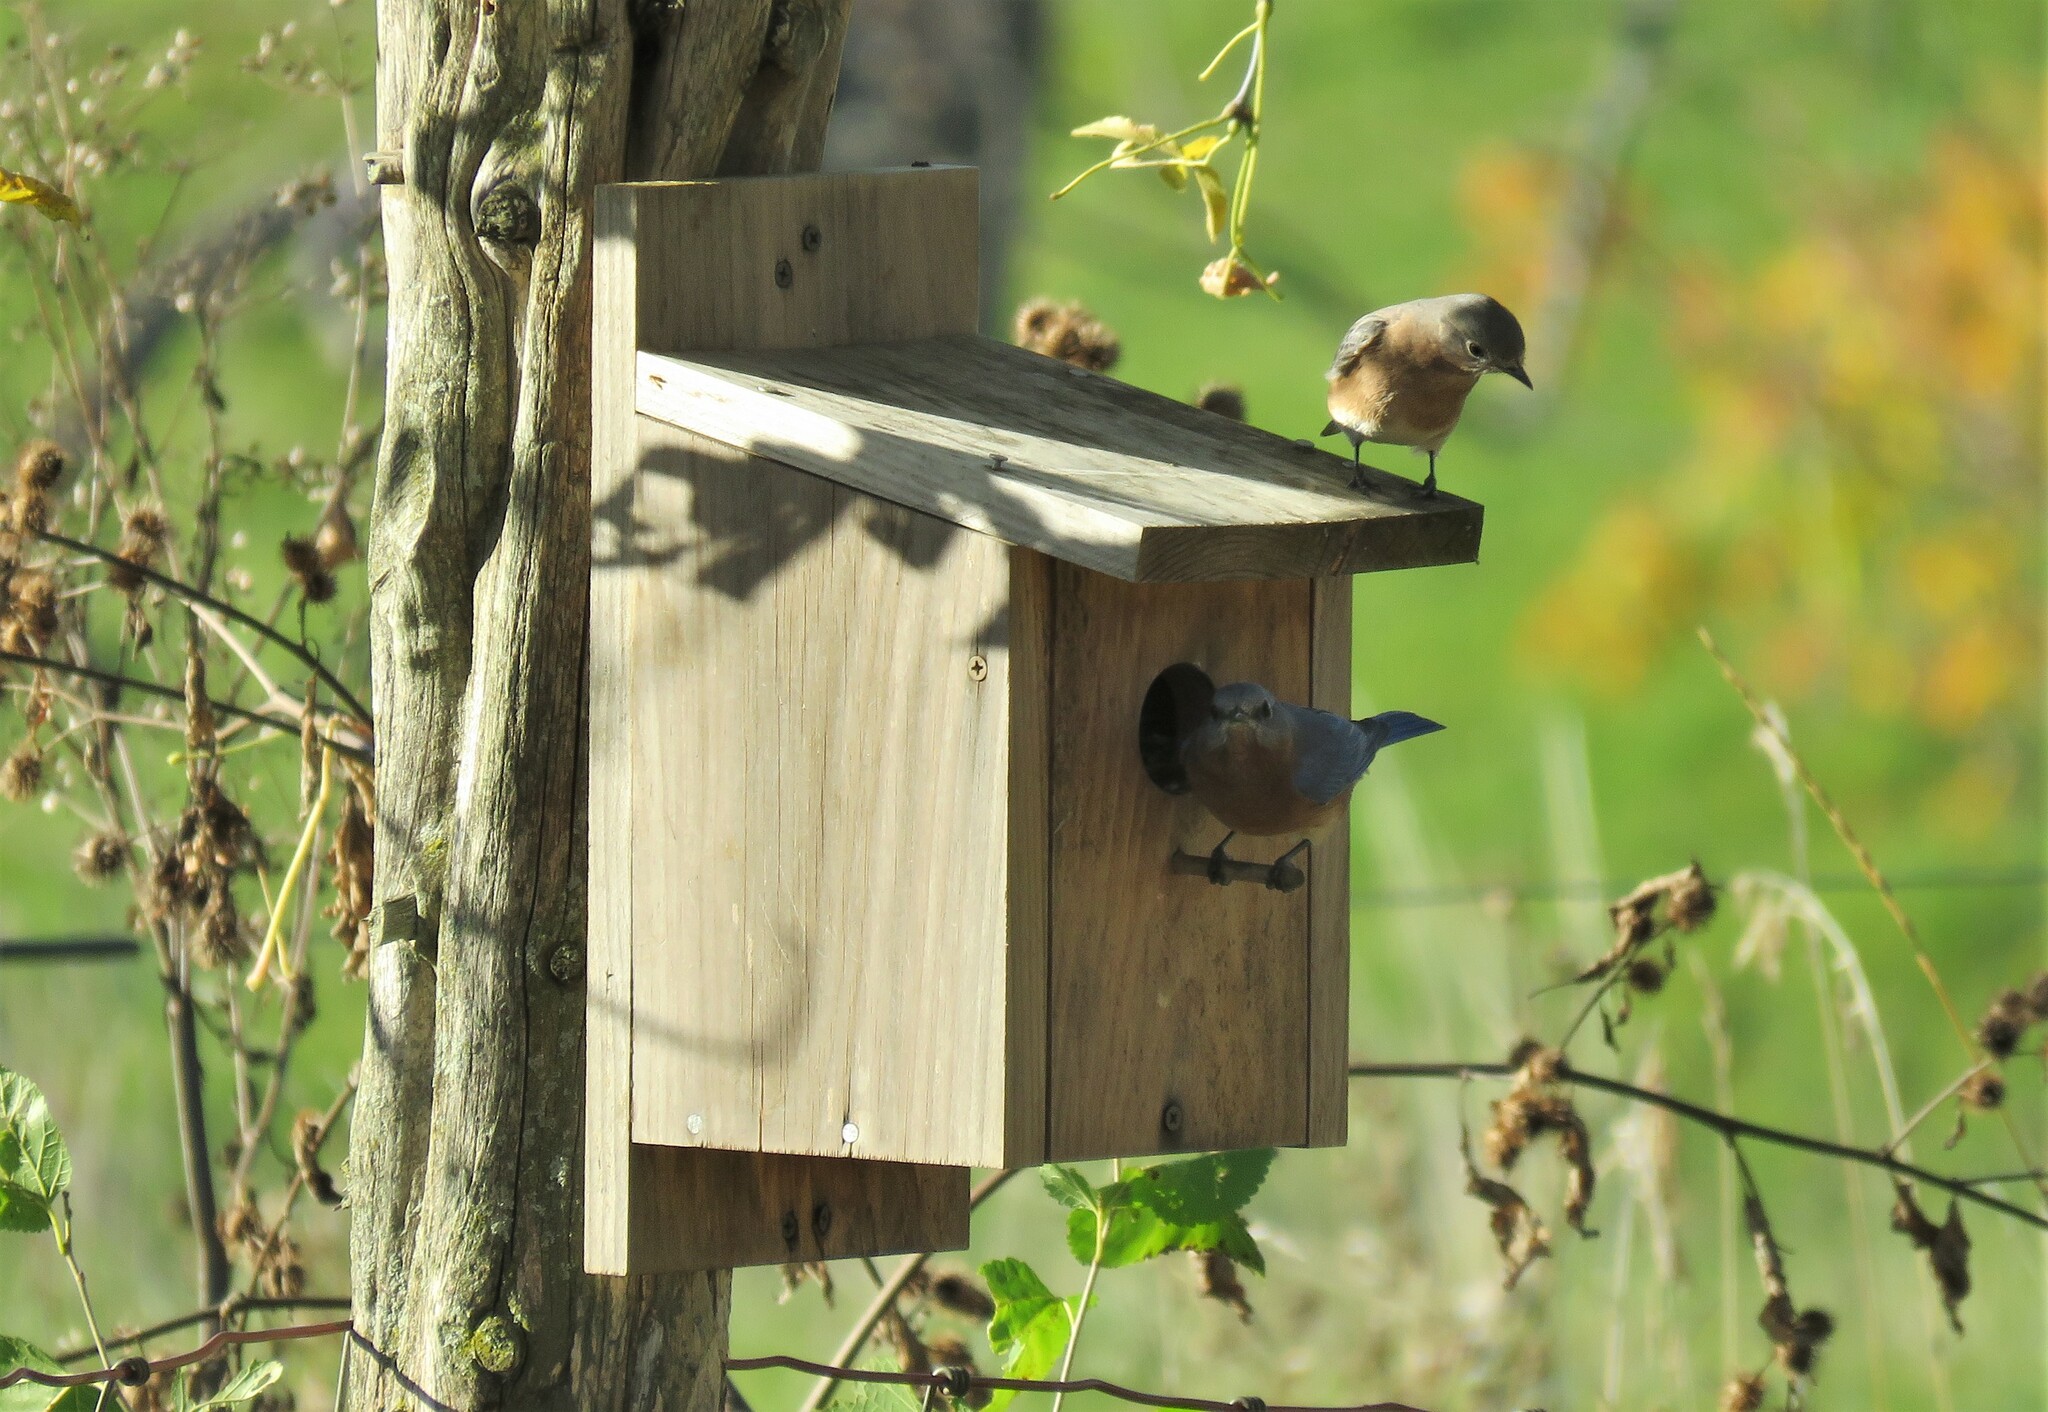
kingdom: Animalia
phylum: Chordata
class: Aves
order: Passeriformes
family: Turdidae
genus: Sialia
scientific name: Sialia sialis
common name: Eastern bluebird
